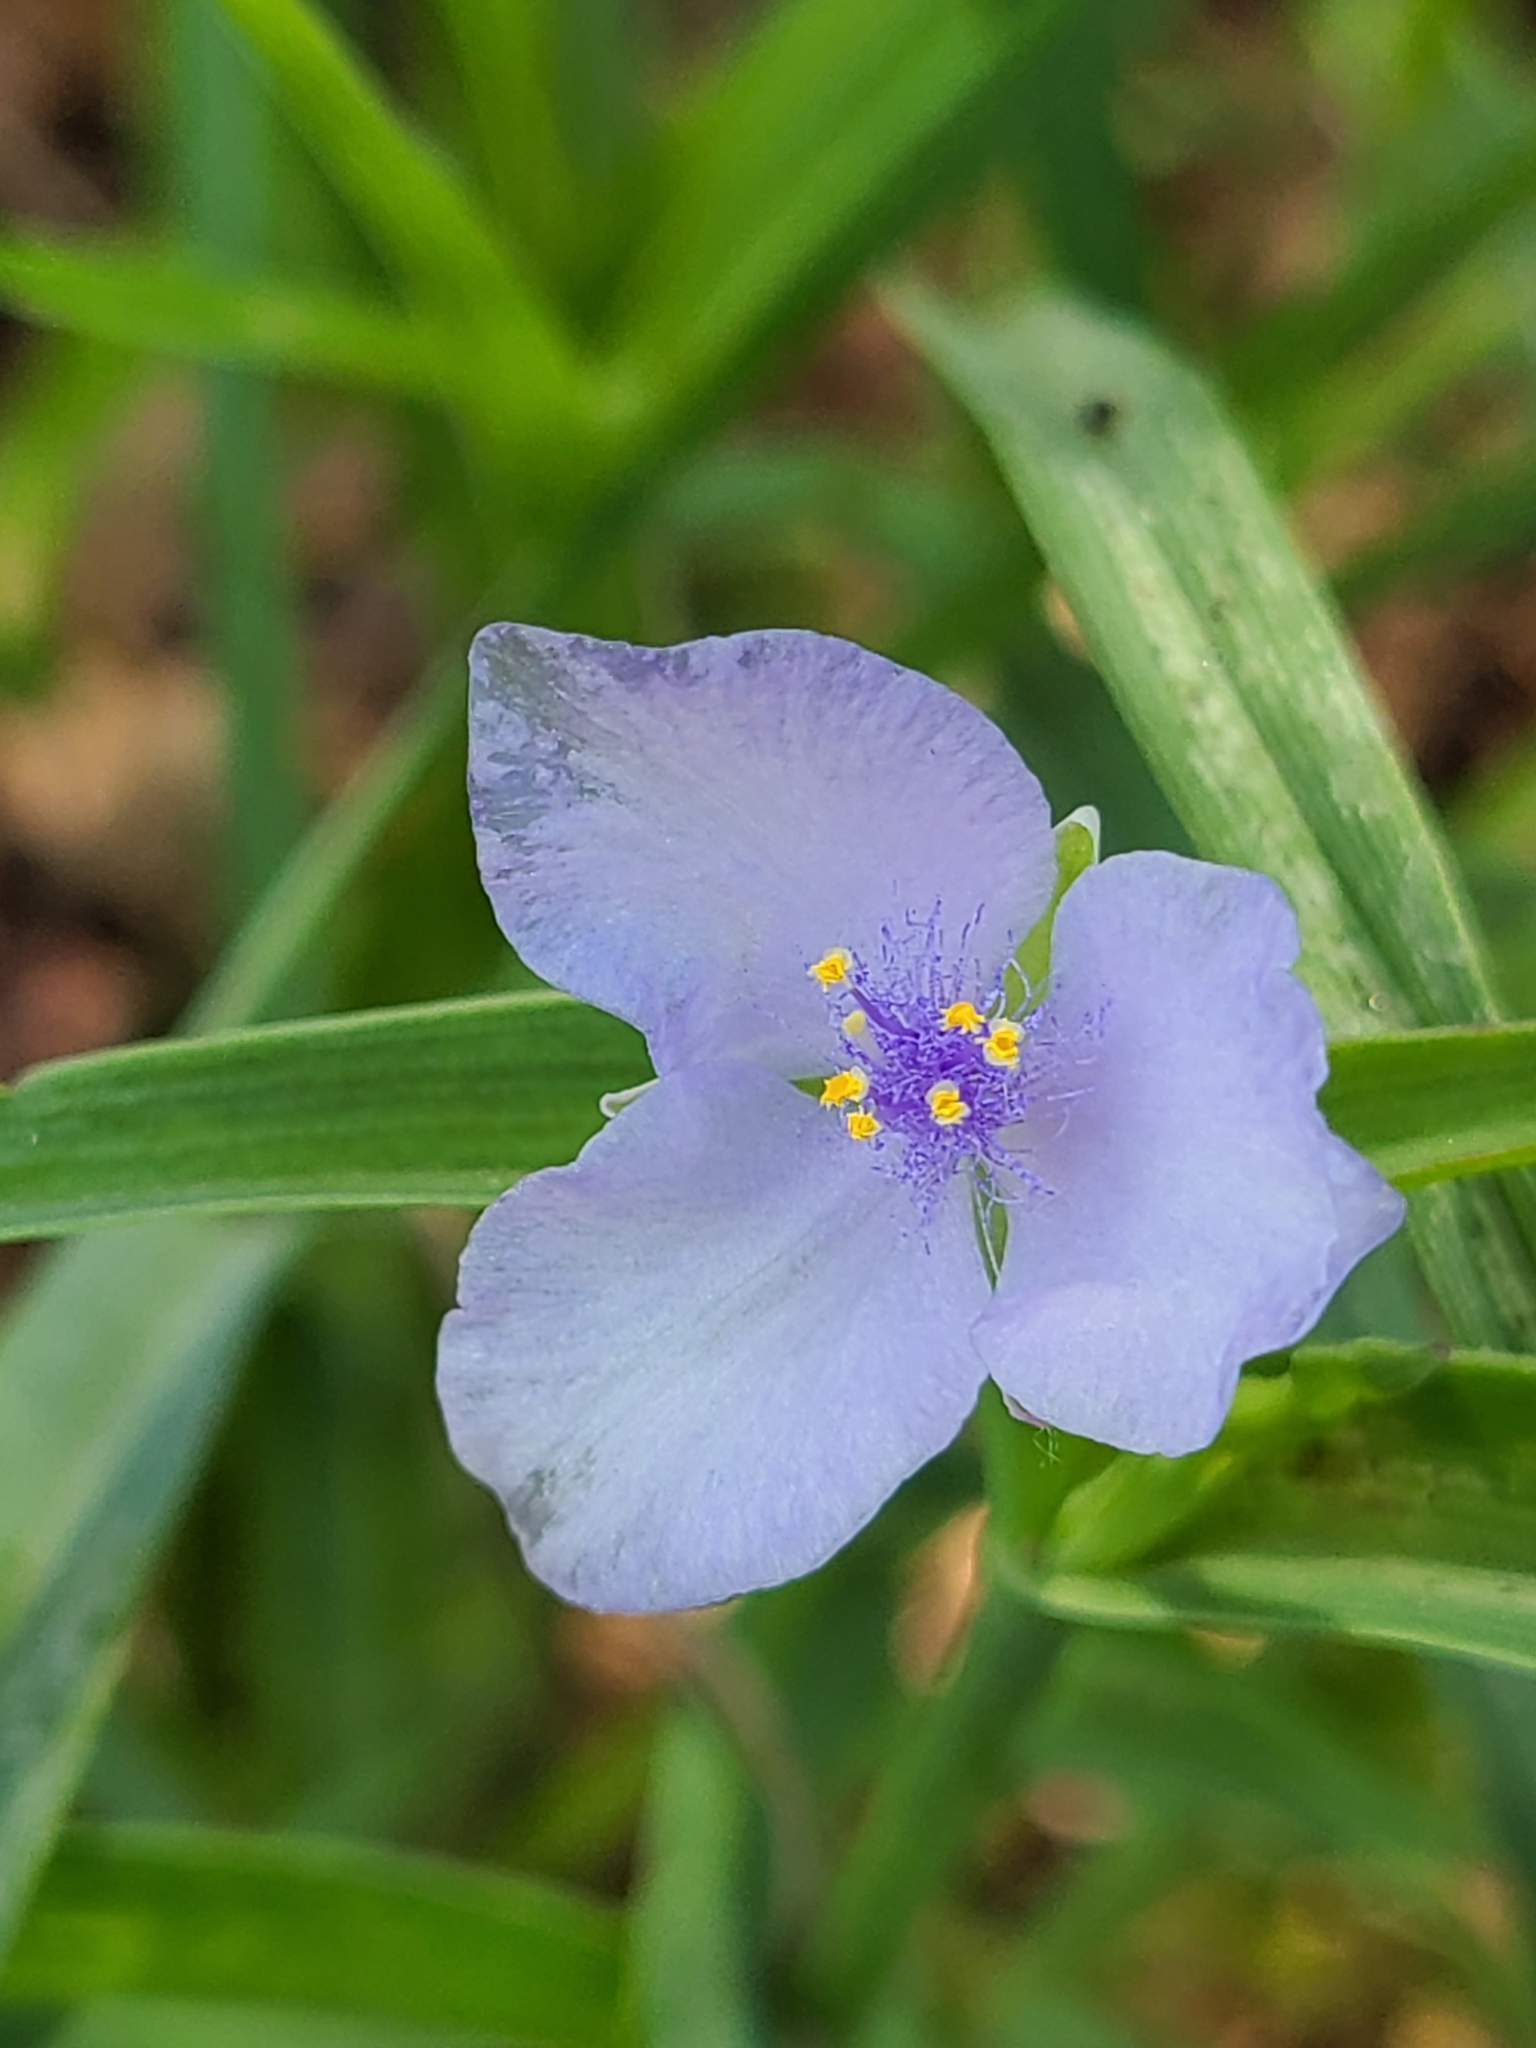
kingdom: Plantae
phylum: Tracheophyta
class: Liliopsida
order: Commelinales
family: Commelinaceae
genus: Tradescantia
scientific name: Tradescantia ohiensis
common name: Ohio spiderwort
